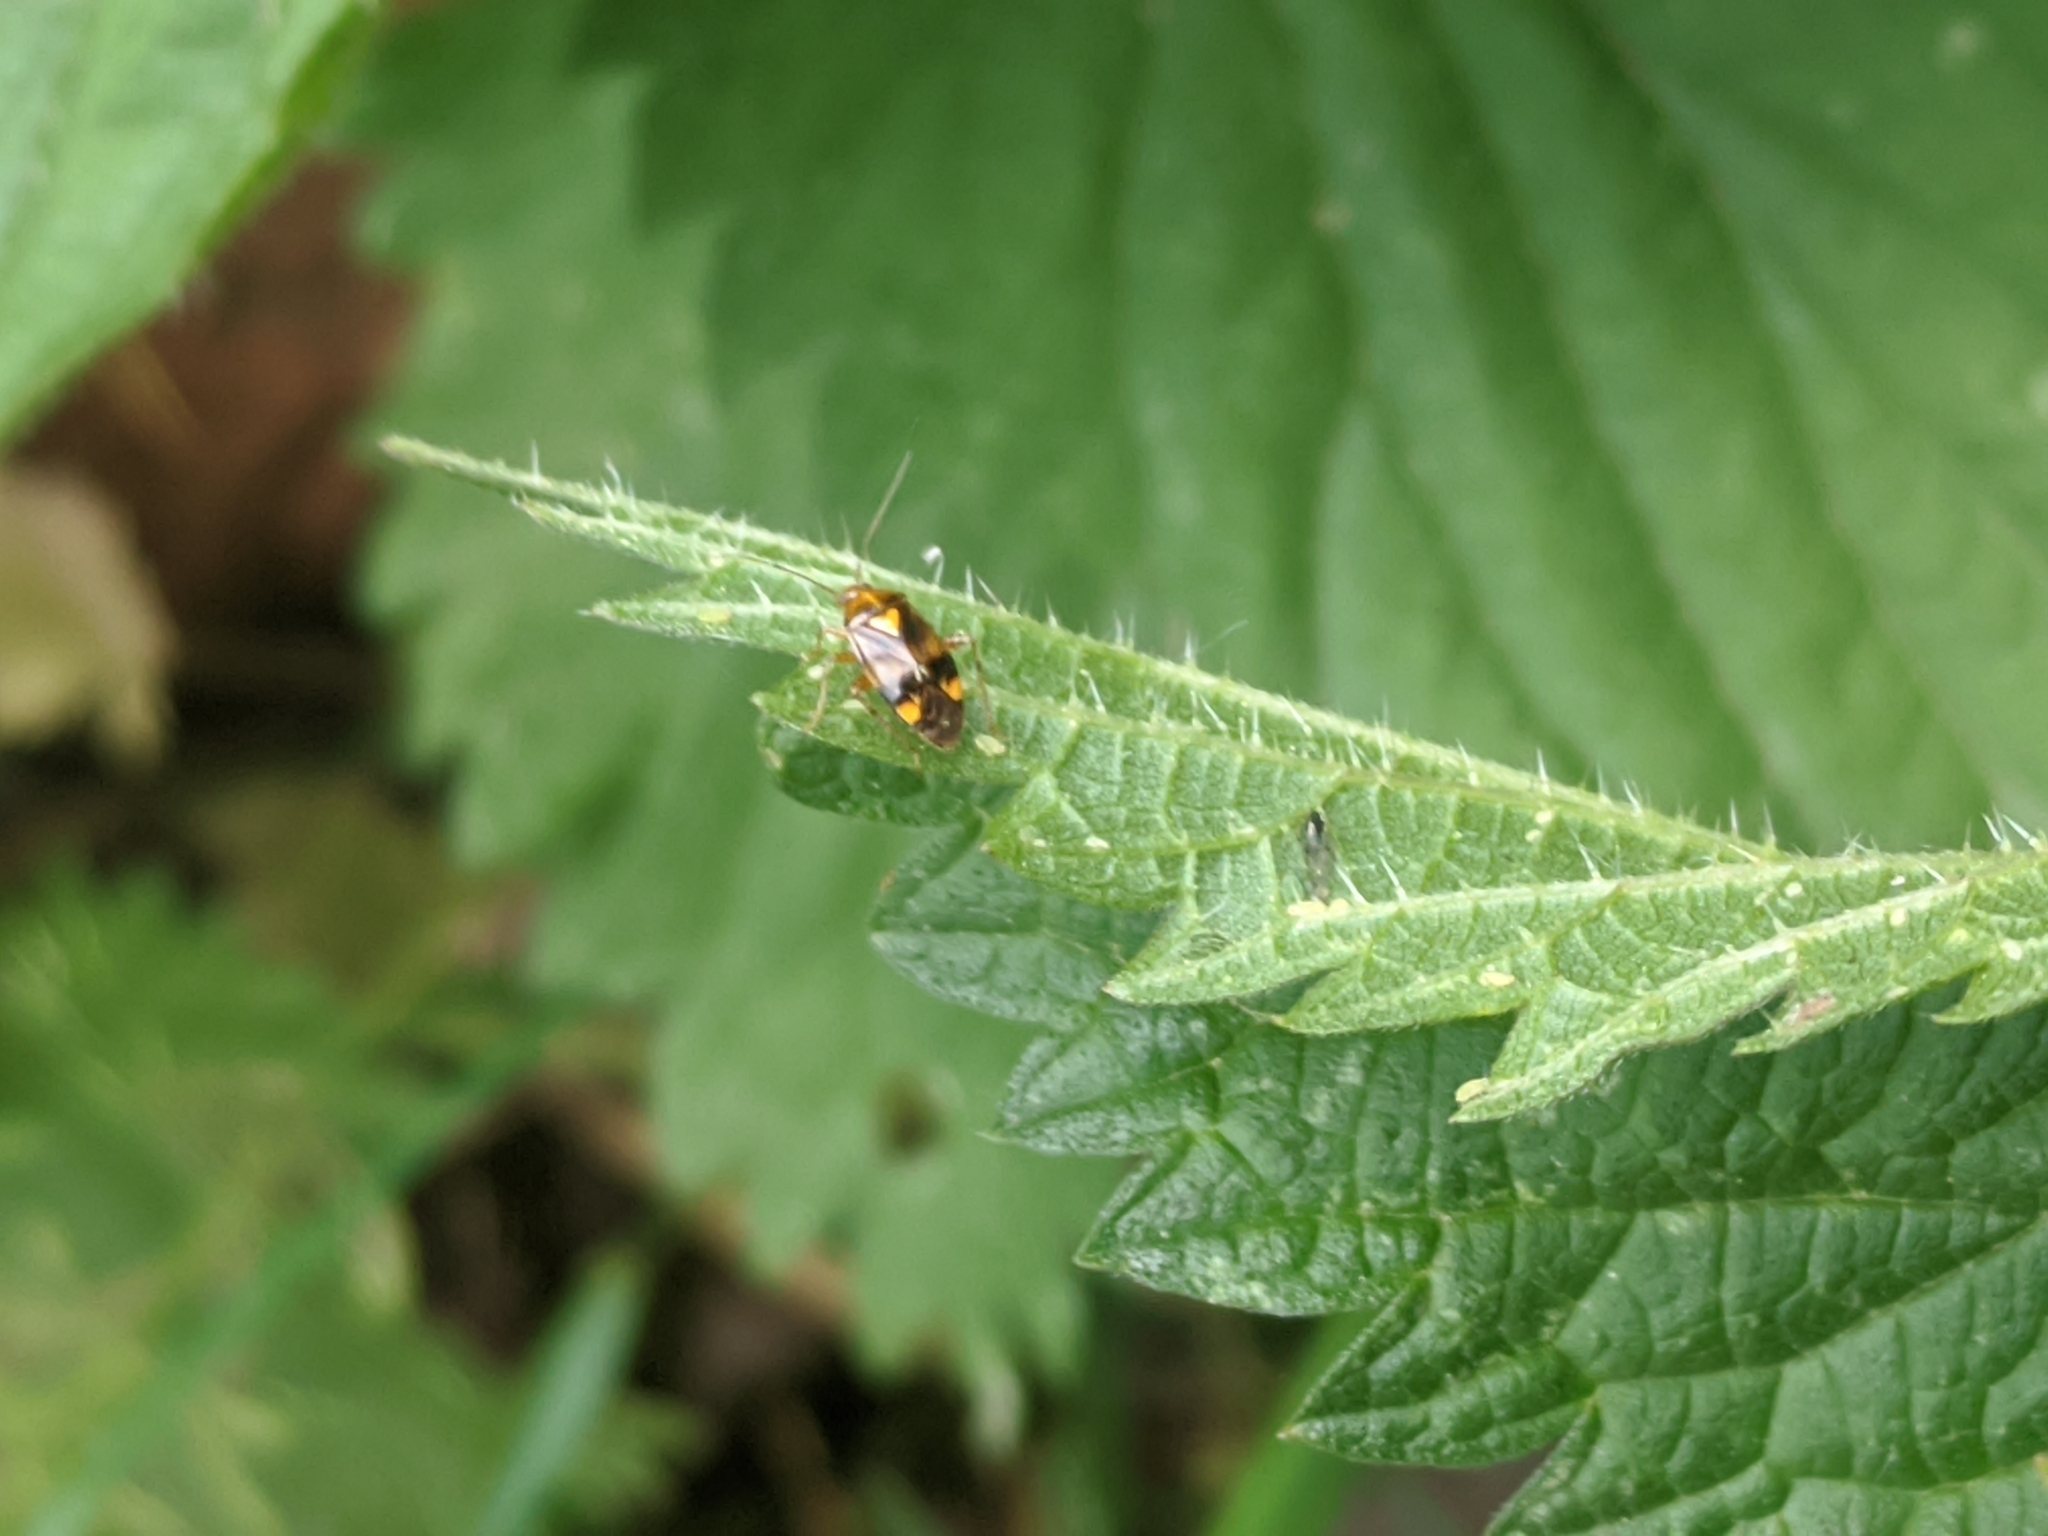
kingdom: Animalia
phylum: Arthropoda
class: Insecta
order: Hemiptera
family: Miridae
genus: Liocoris
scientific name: Liocoris tripustulatus
